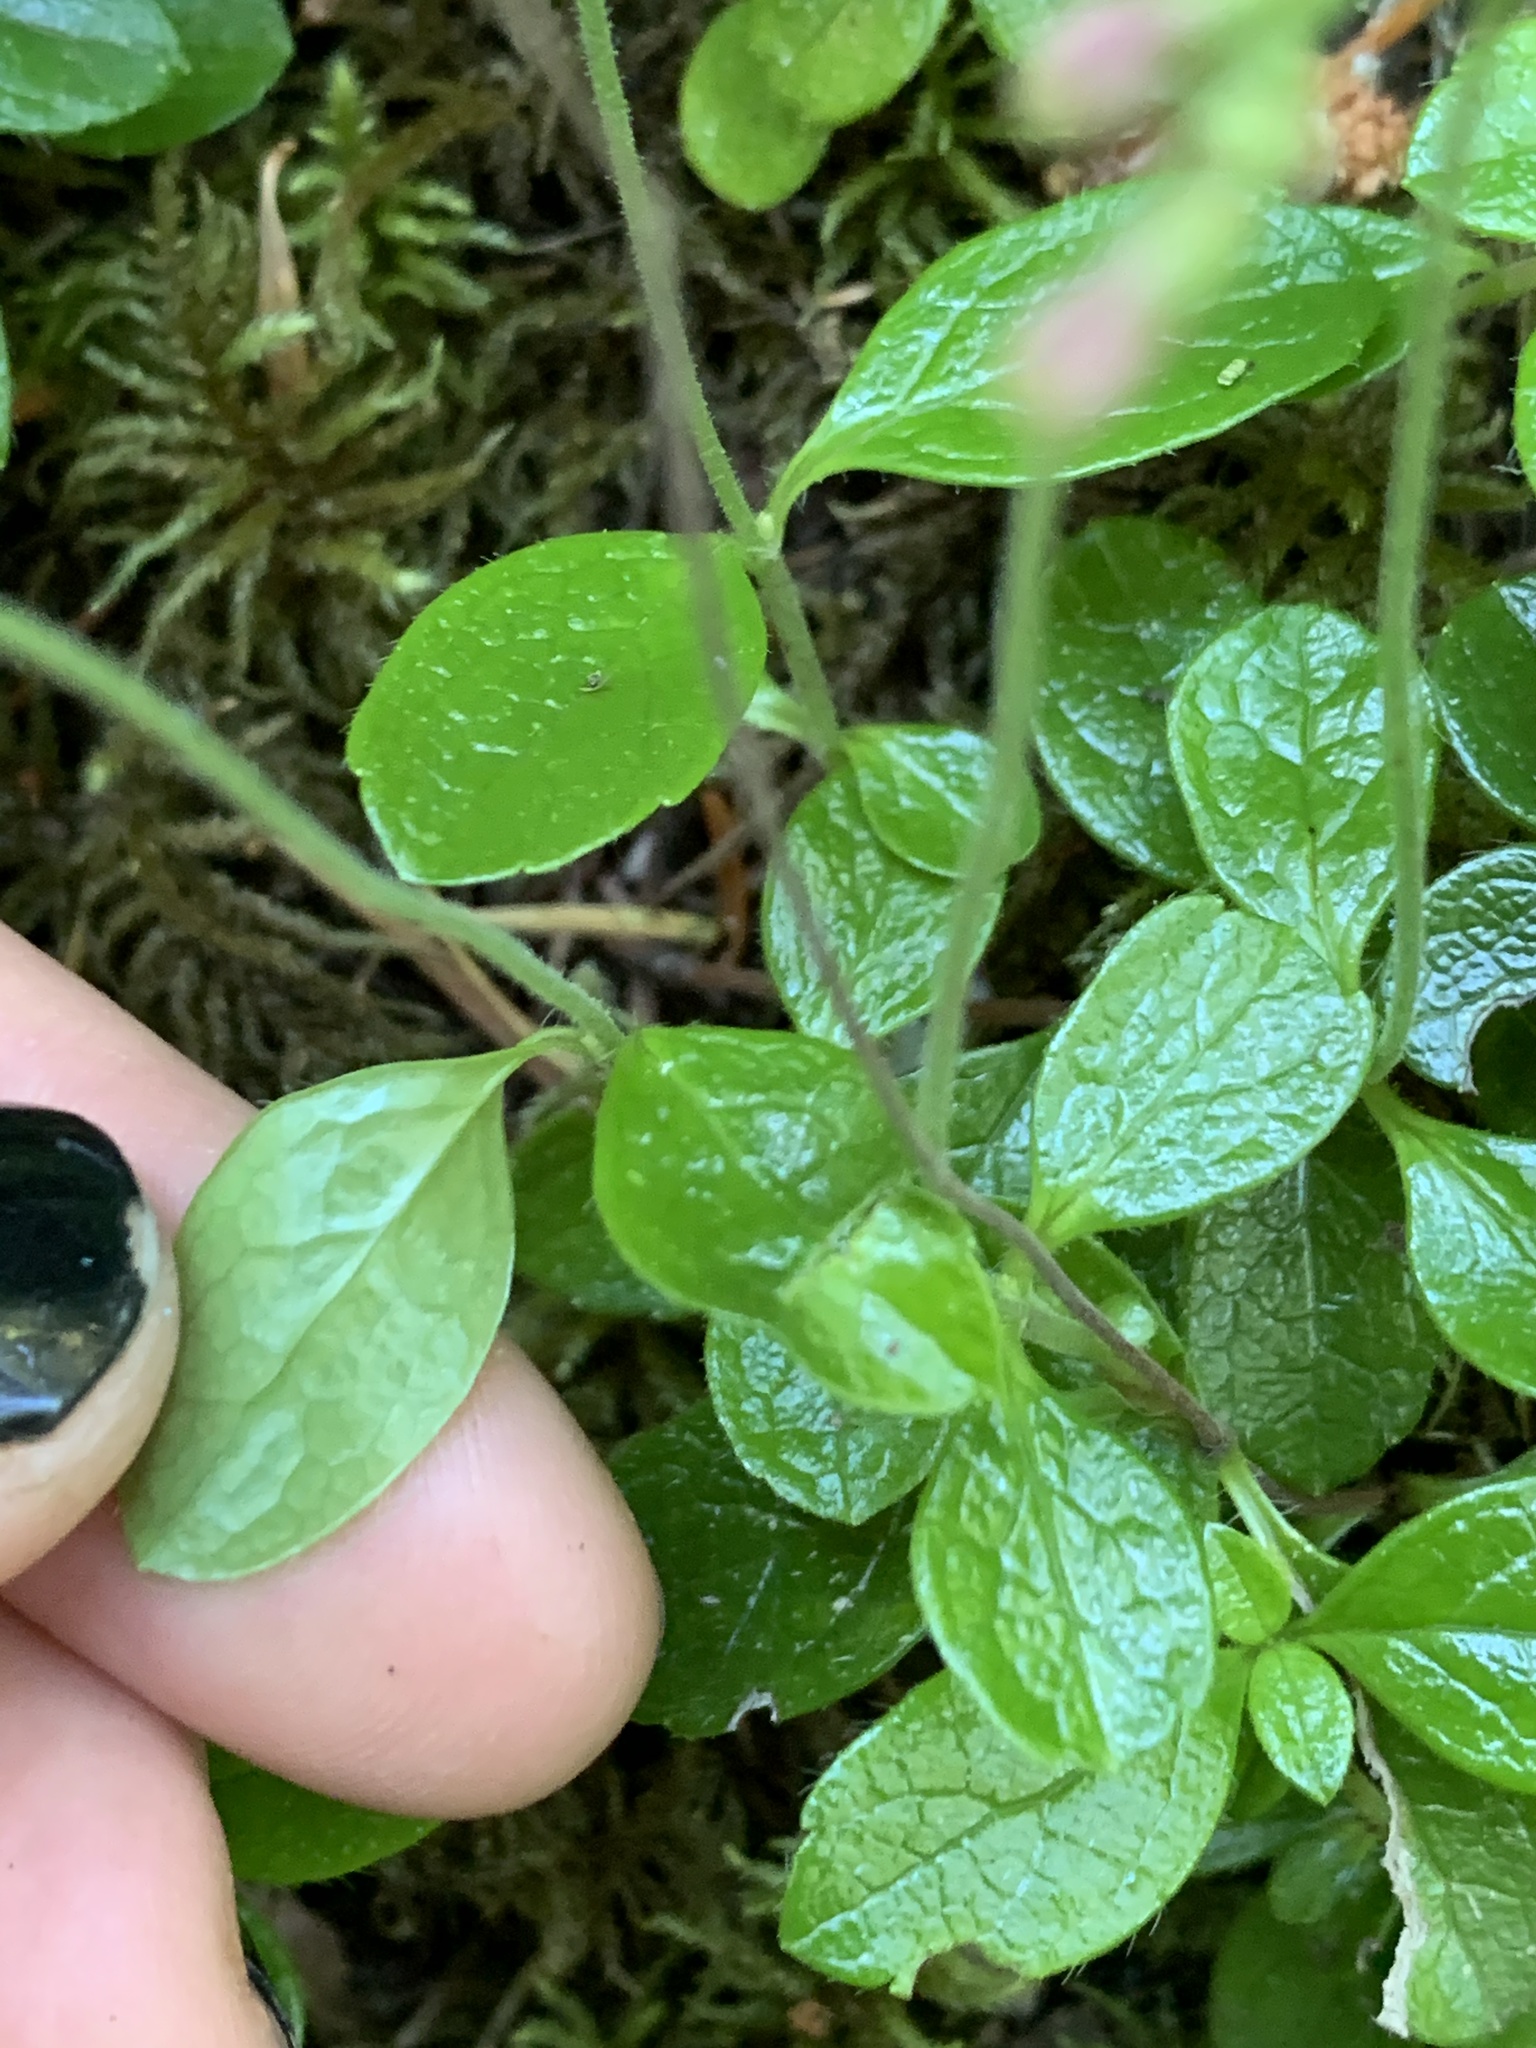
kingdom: Plantae
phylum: Tracheophyta
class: Magnoliopsida
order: Dipsacales
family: Caprifoliaceae
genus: Linnaea
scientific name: Linnaea borealis
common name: Twinflower
